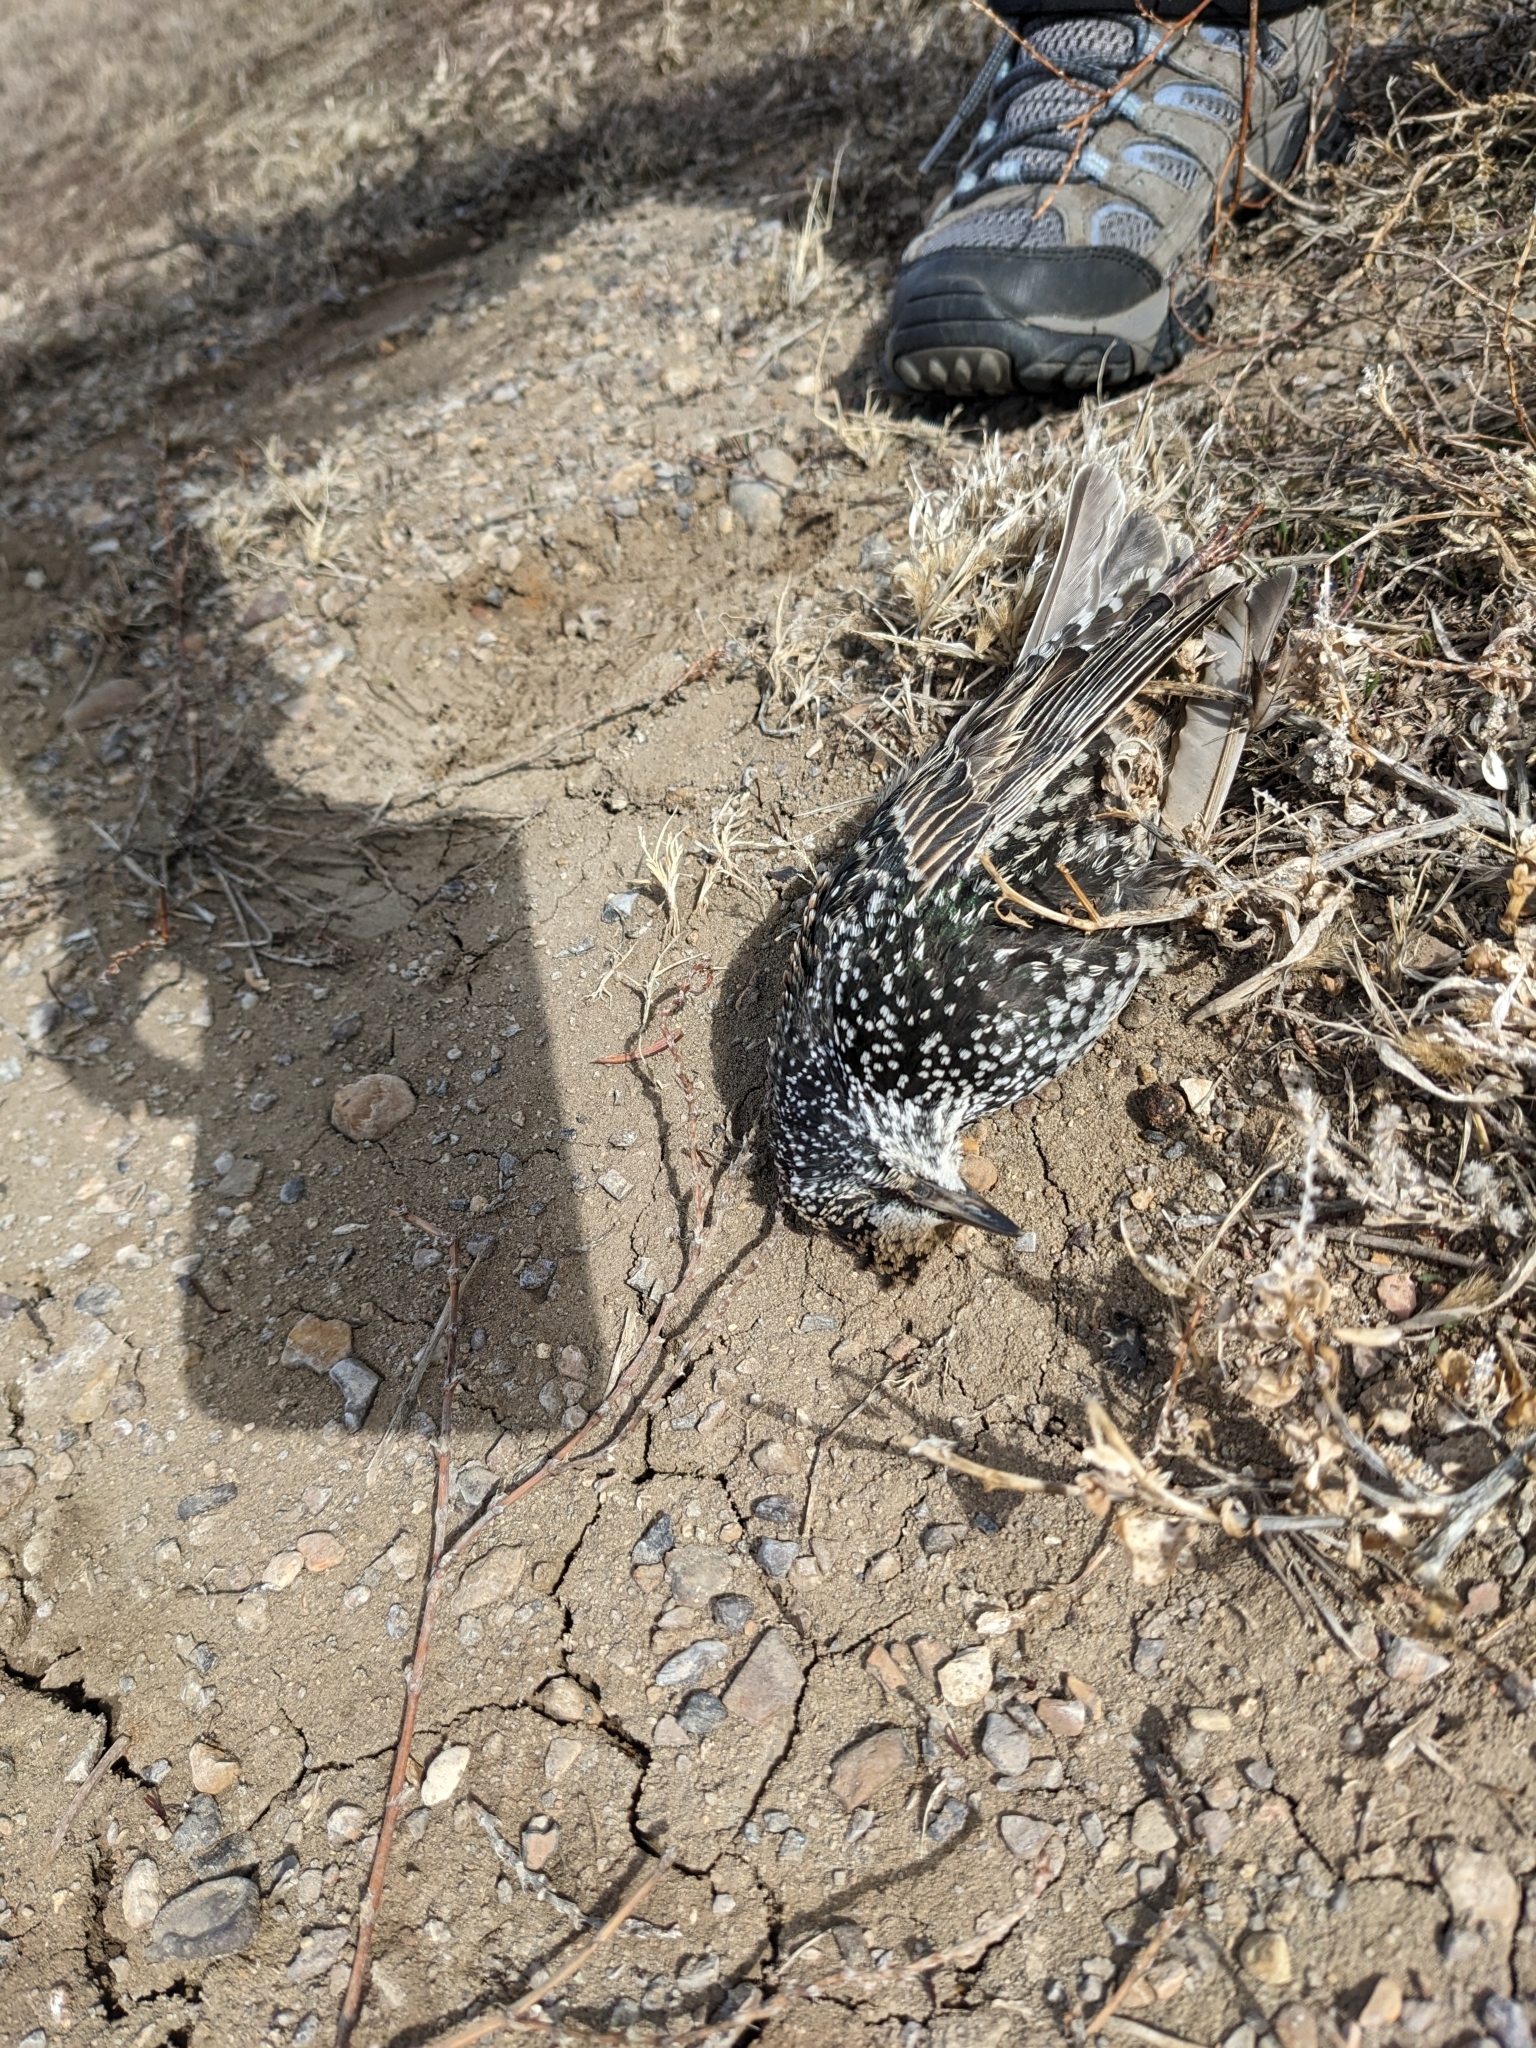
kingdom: Animalia
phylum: Chordata
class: Aves
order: Passeriformes
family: Sturnidae
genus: Sturnus
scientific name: Sturnus vulgaris
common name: Common starling
